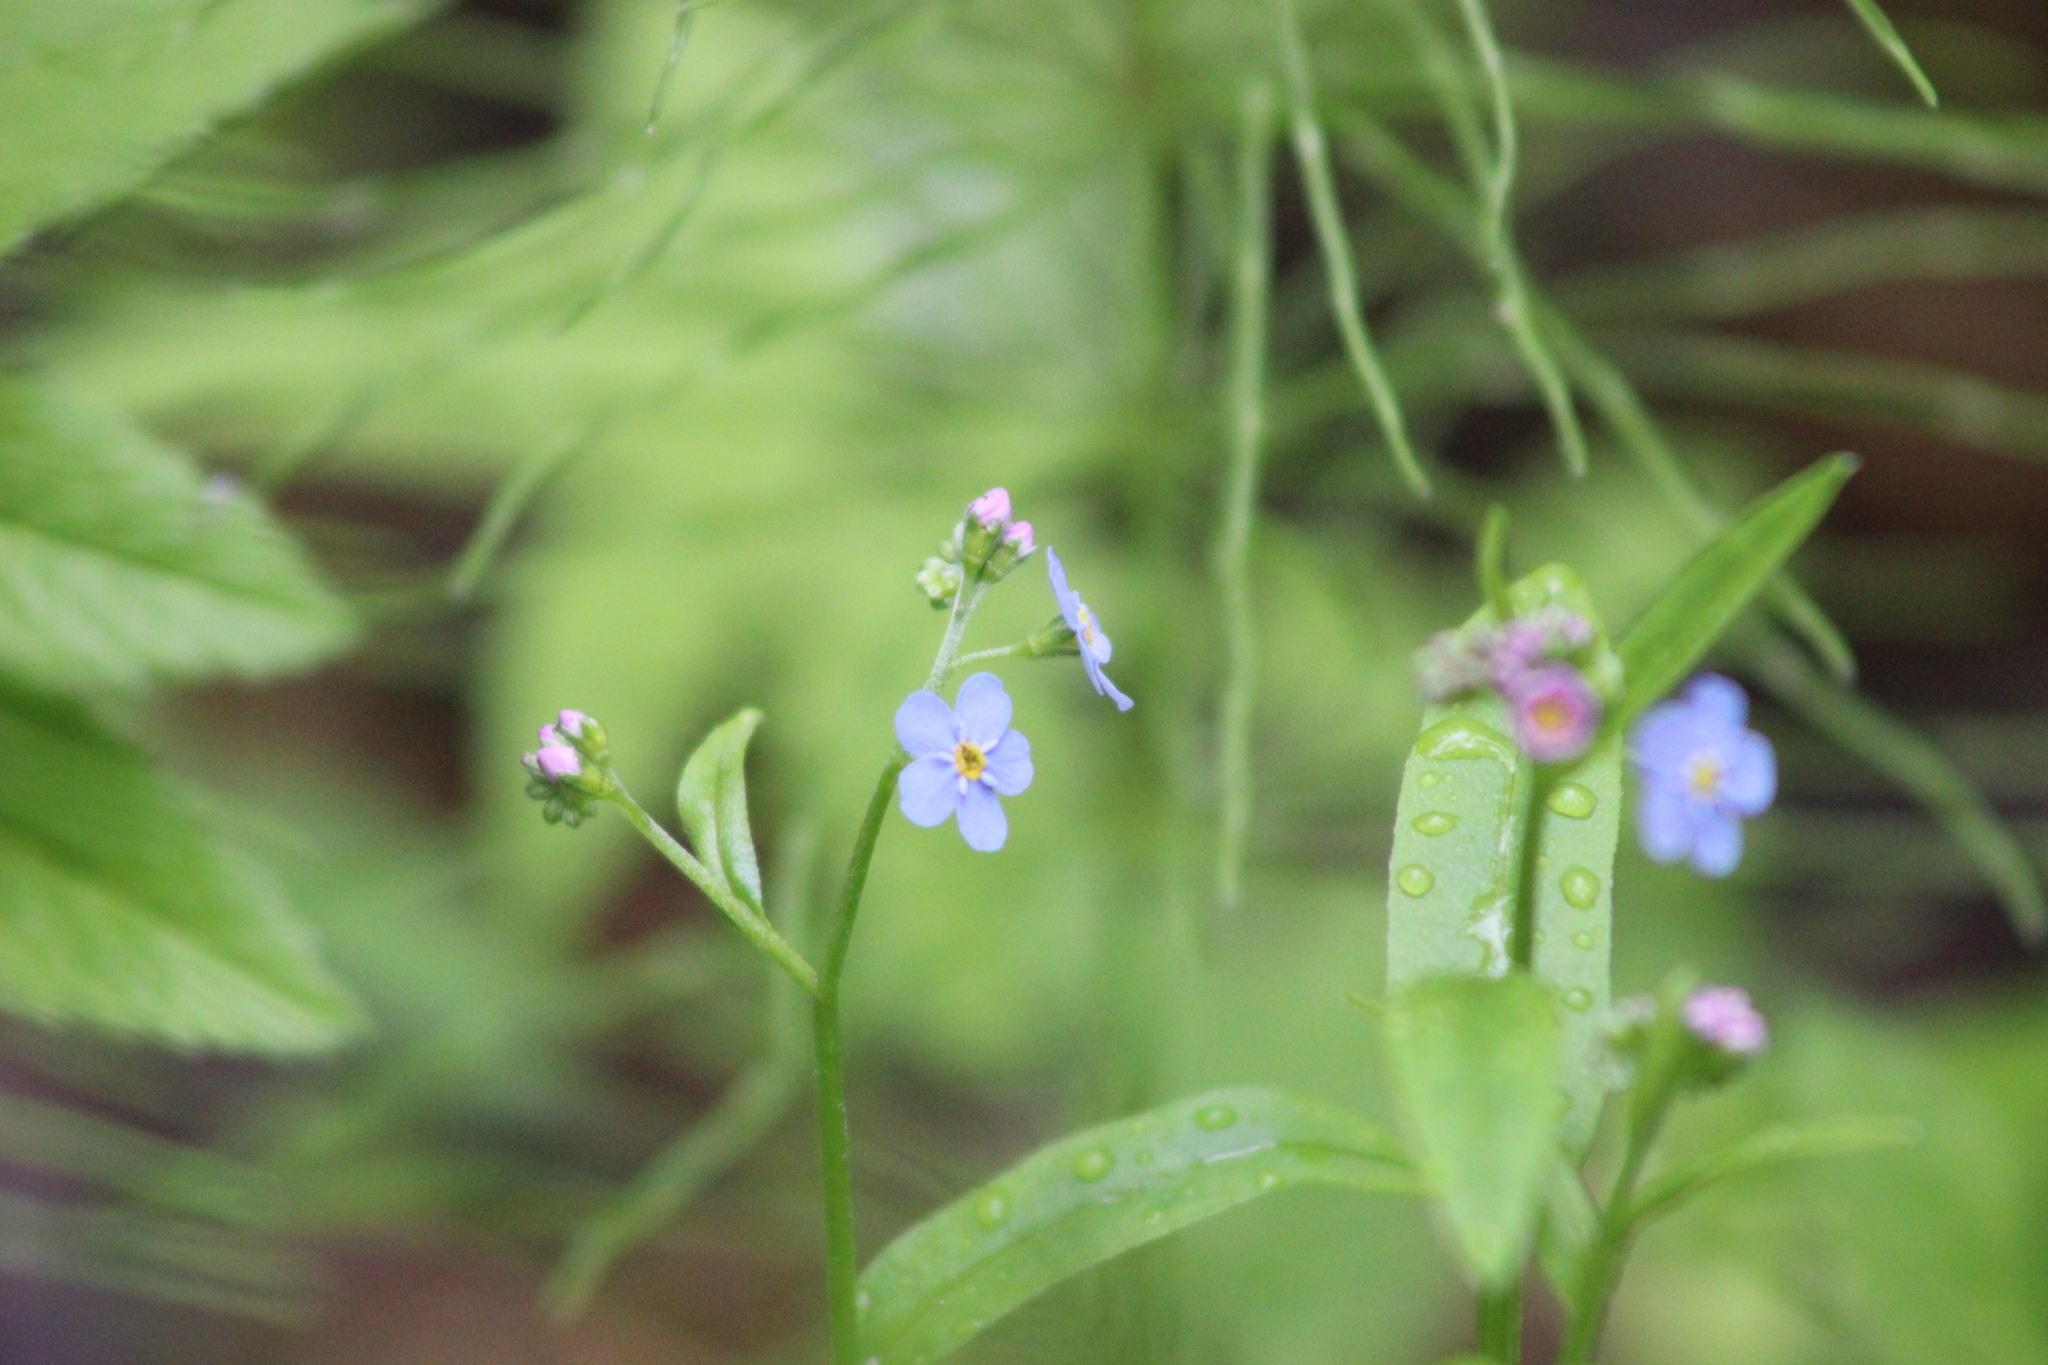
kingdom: Plantae
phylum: Tracheophyta
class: Magnoliopsida
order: Boraginales
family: Boraginaceae
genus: Myosotis
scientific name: Myosotis scorpioides
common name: Water forget-me-not
